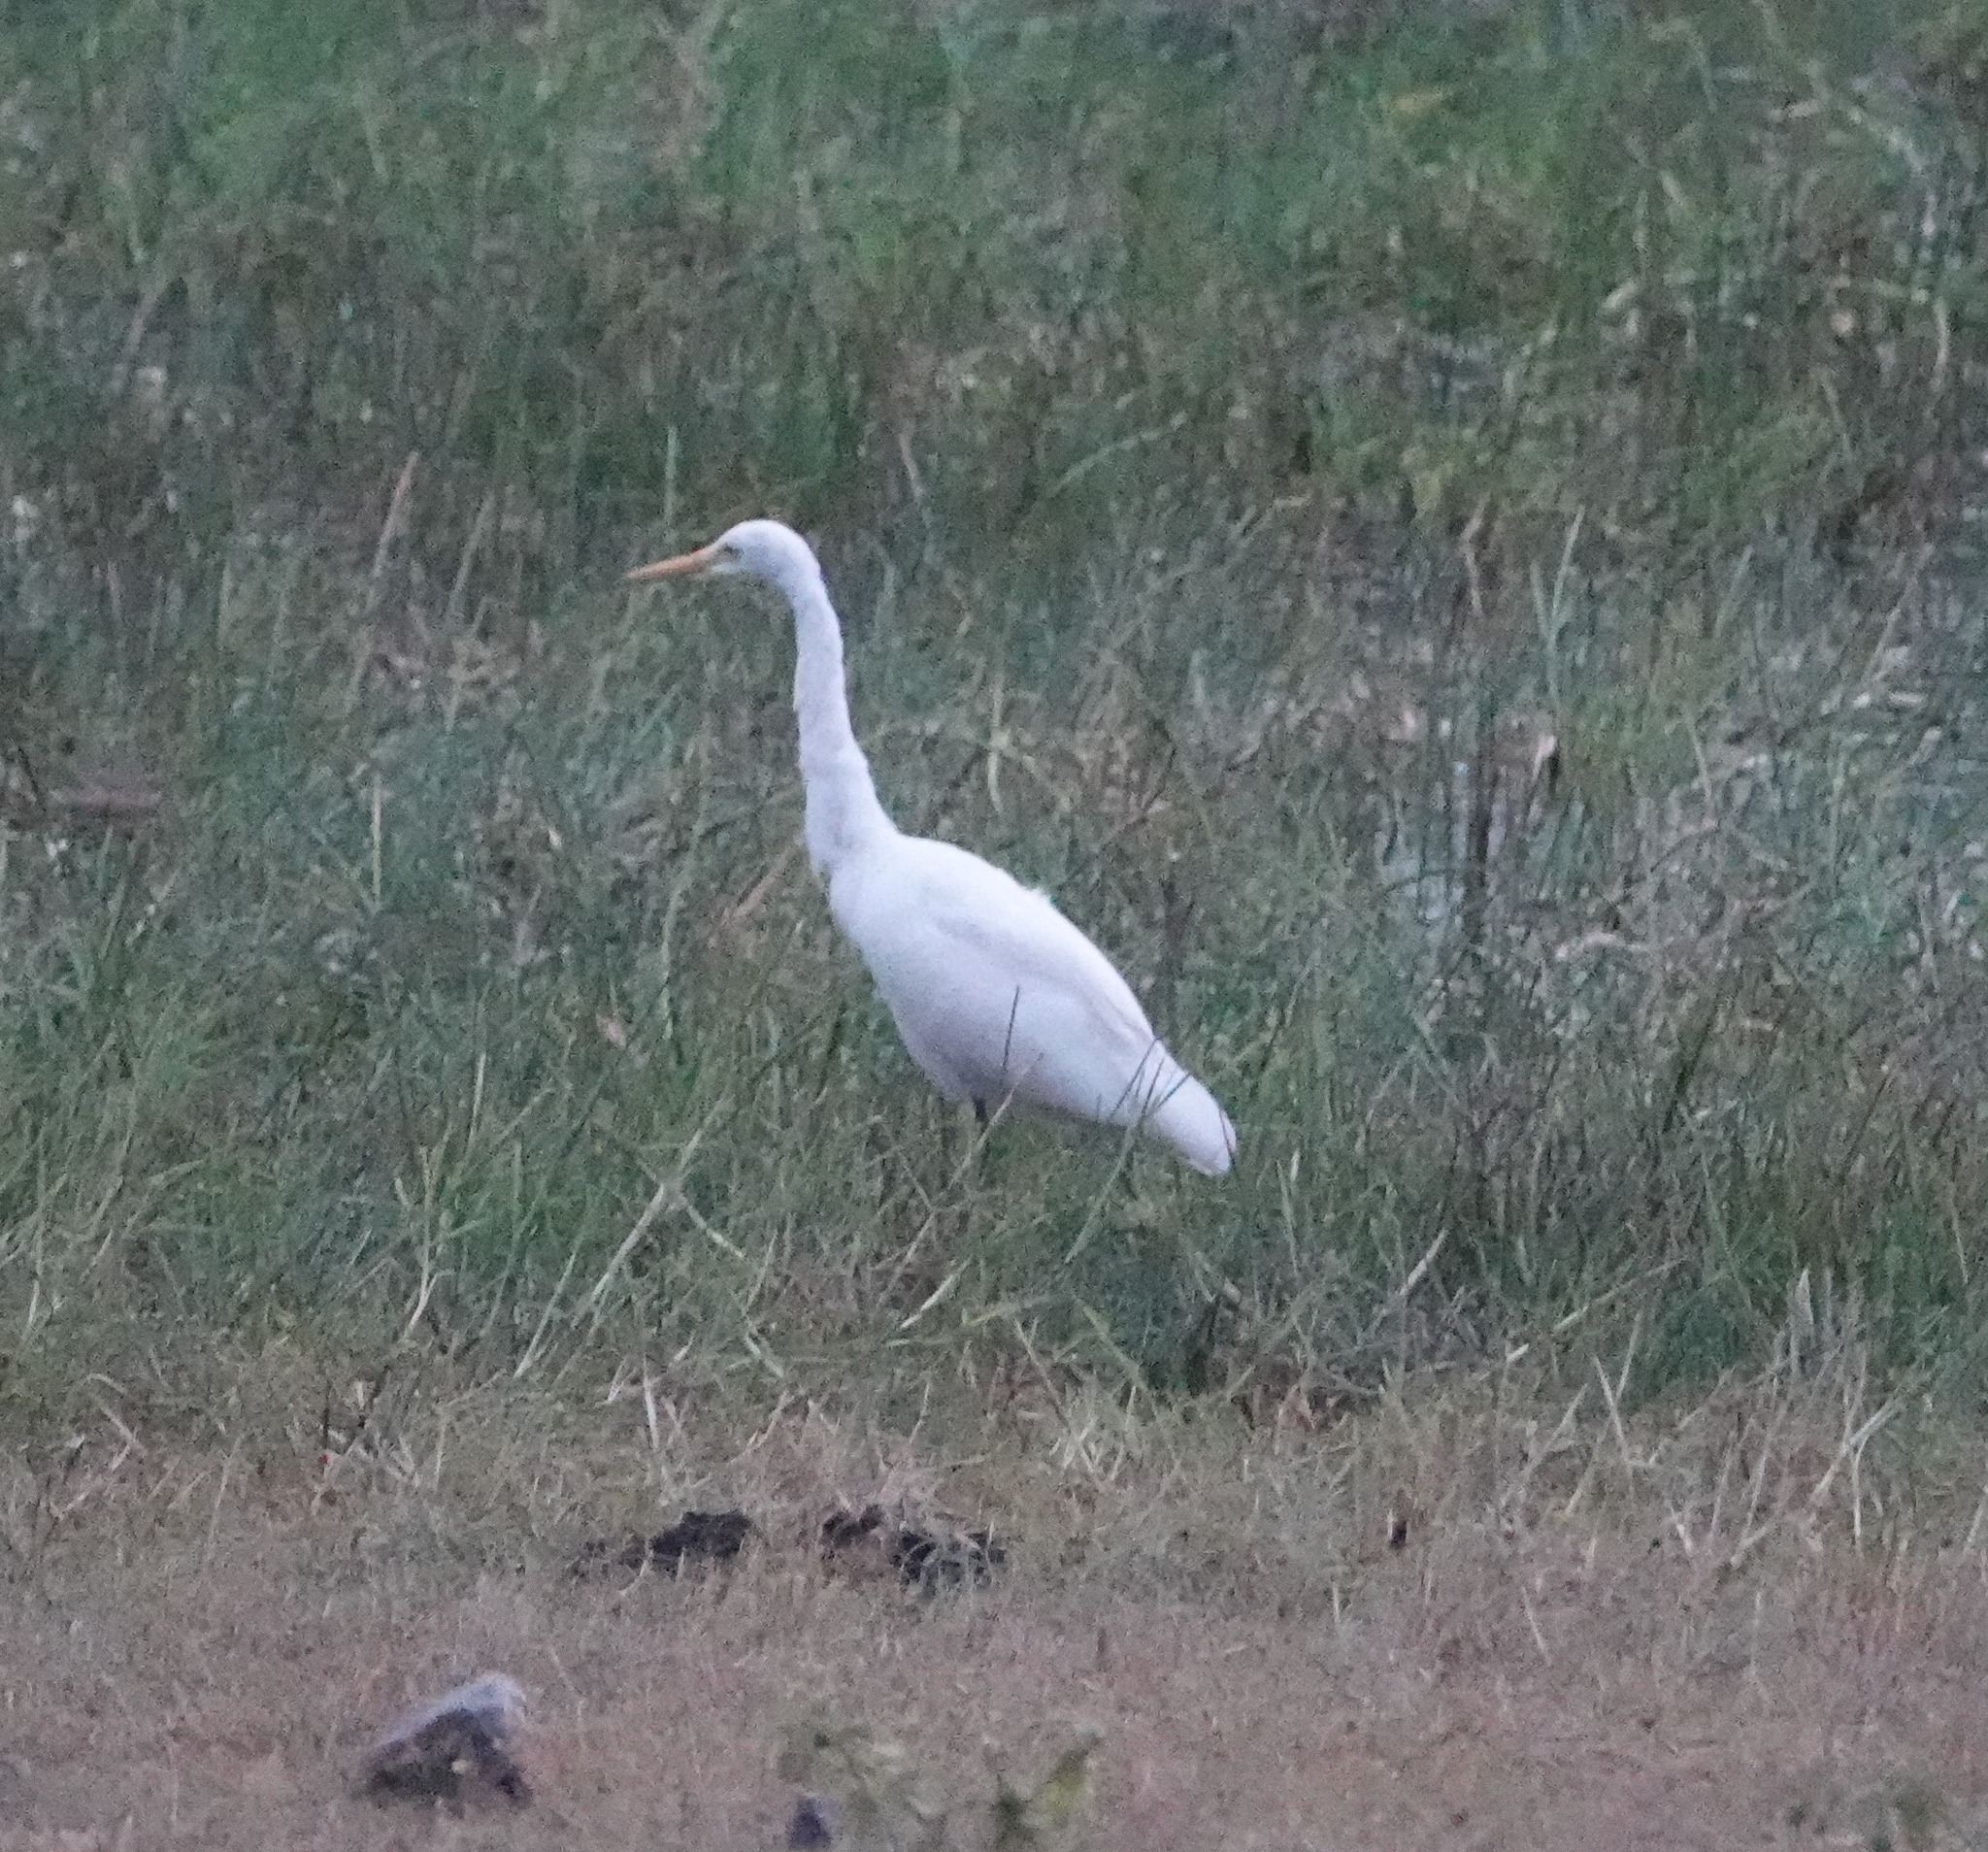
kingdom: Animalia
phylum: Chordata
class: Aves
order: Pelecaniformes
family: Ardeidae
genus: Egretta
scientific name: Egretta intermedia
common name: Intermediate egret
